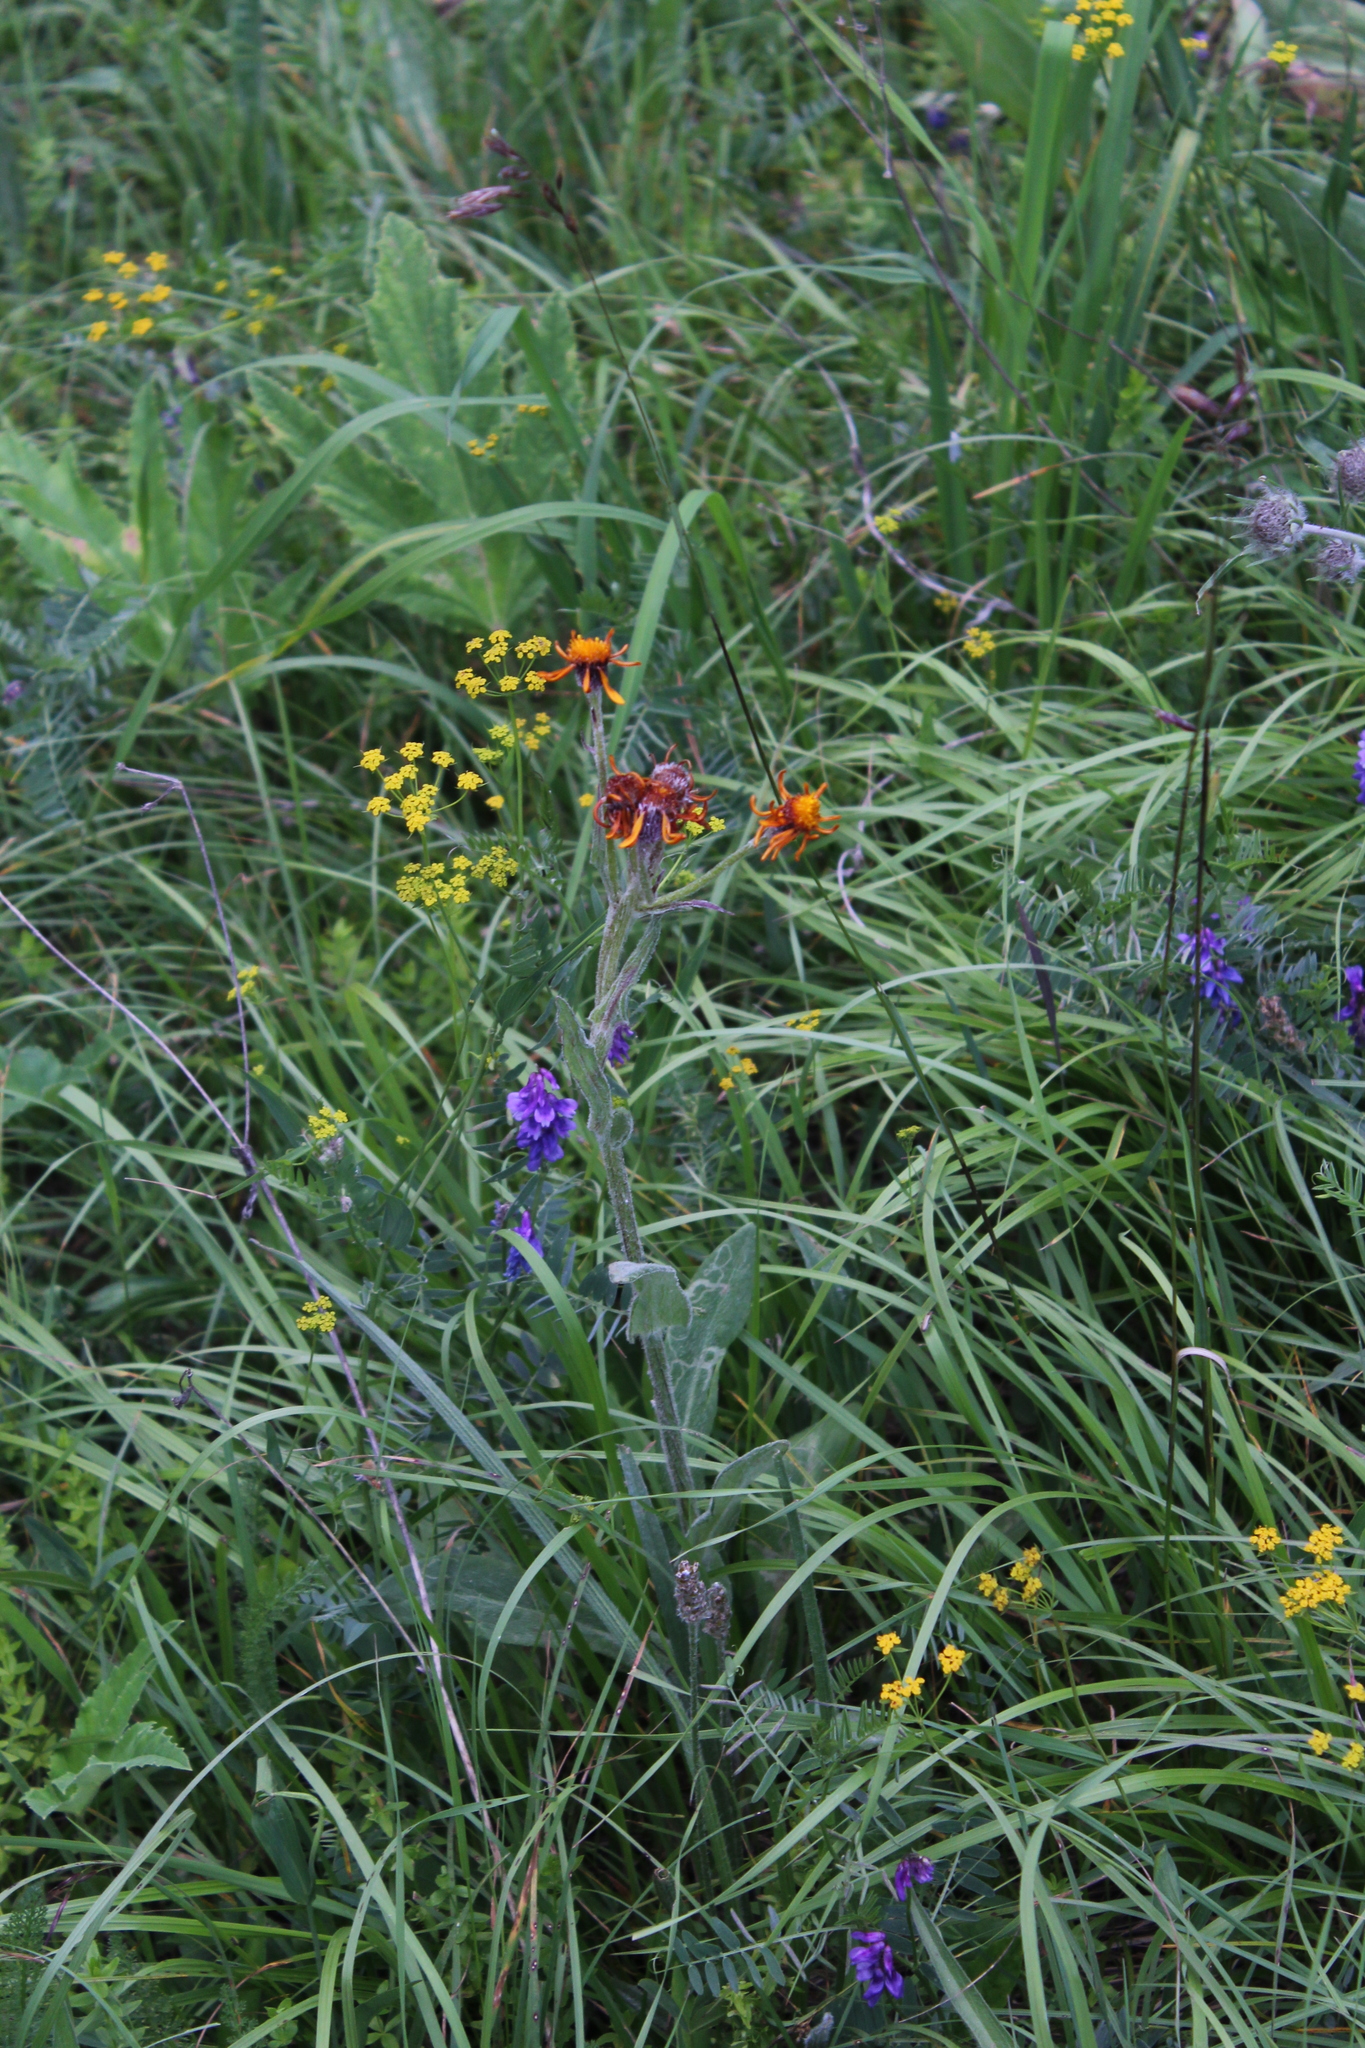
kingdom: Plantae
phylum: Tracheophyta
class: Magnoliopsida
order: Asterales
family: Asteraceae
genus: Tephroseris
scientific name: Tephroseris integrifolia
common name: Field fleawort
